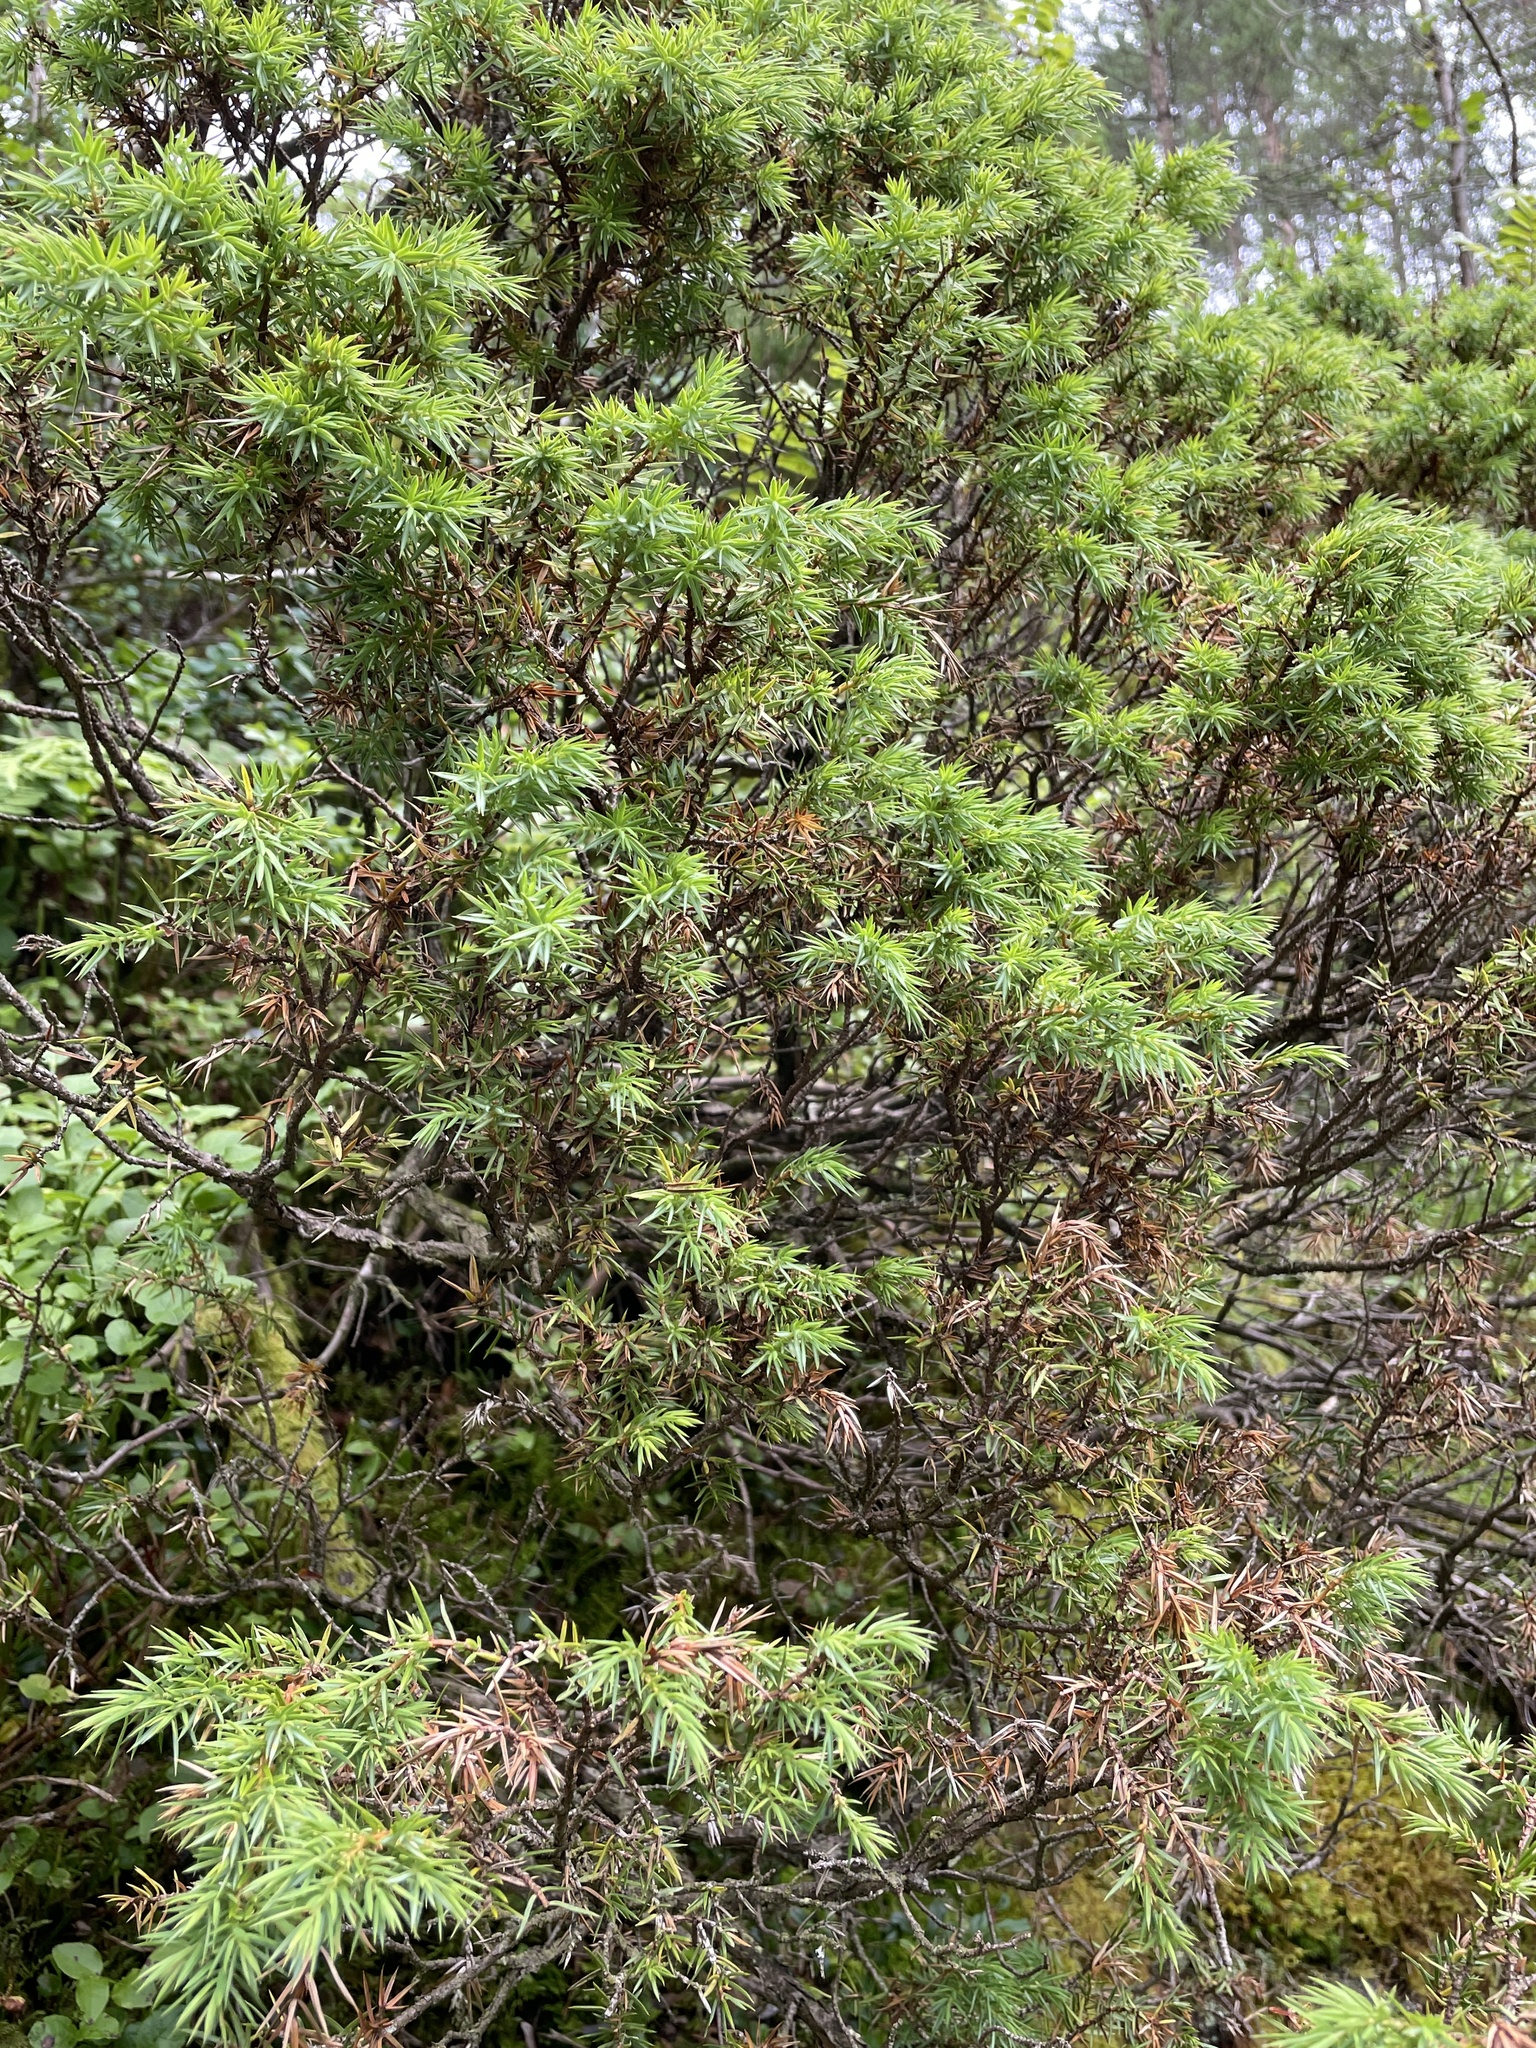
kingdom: Plantae
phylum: Tracheophyta
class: Pinopsida
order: Pinales
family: Cupressaceae
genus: Juniperus
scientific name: Juniperus communis
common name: Common juniper
